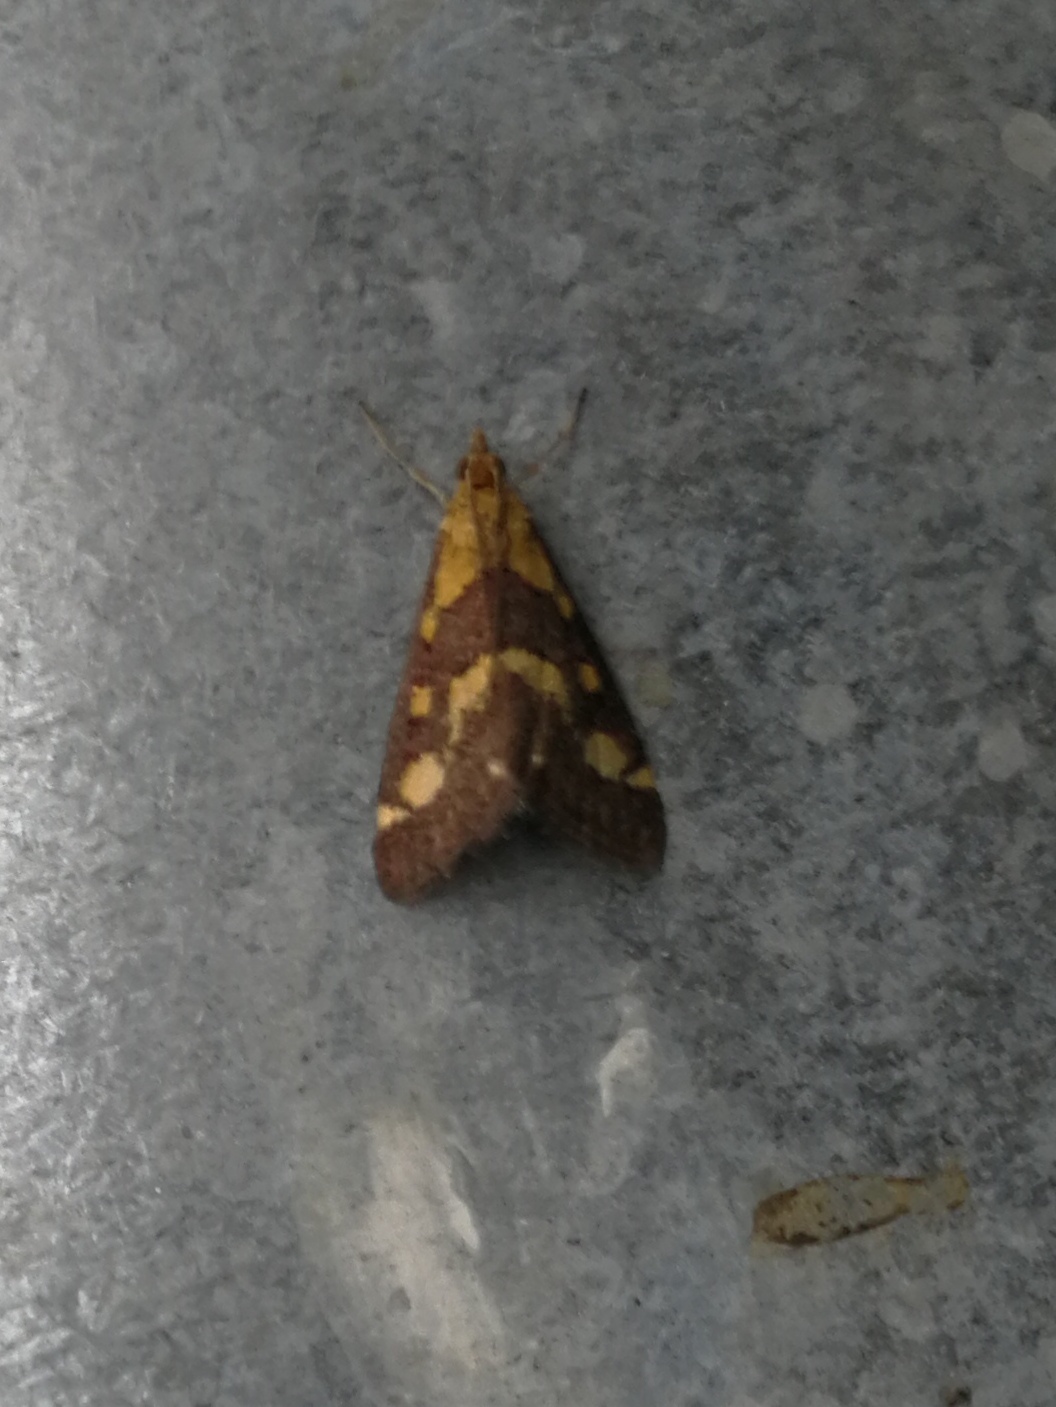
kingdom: Animalia
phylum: Arthropoda
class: Insecta
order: Lepidoptera
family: Crambidae
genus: Pyrausta
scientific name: Pyrausta purpuralis
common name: Common purple & gold
